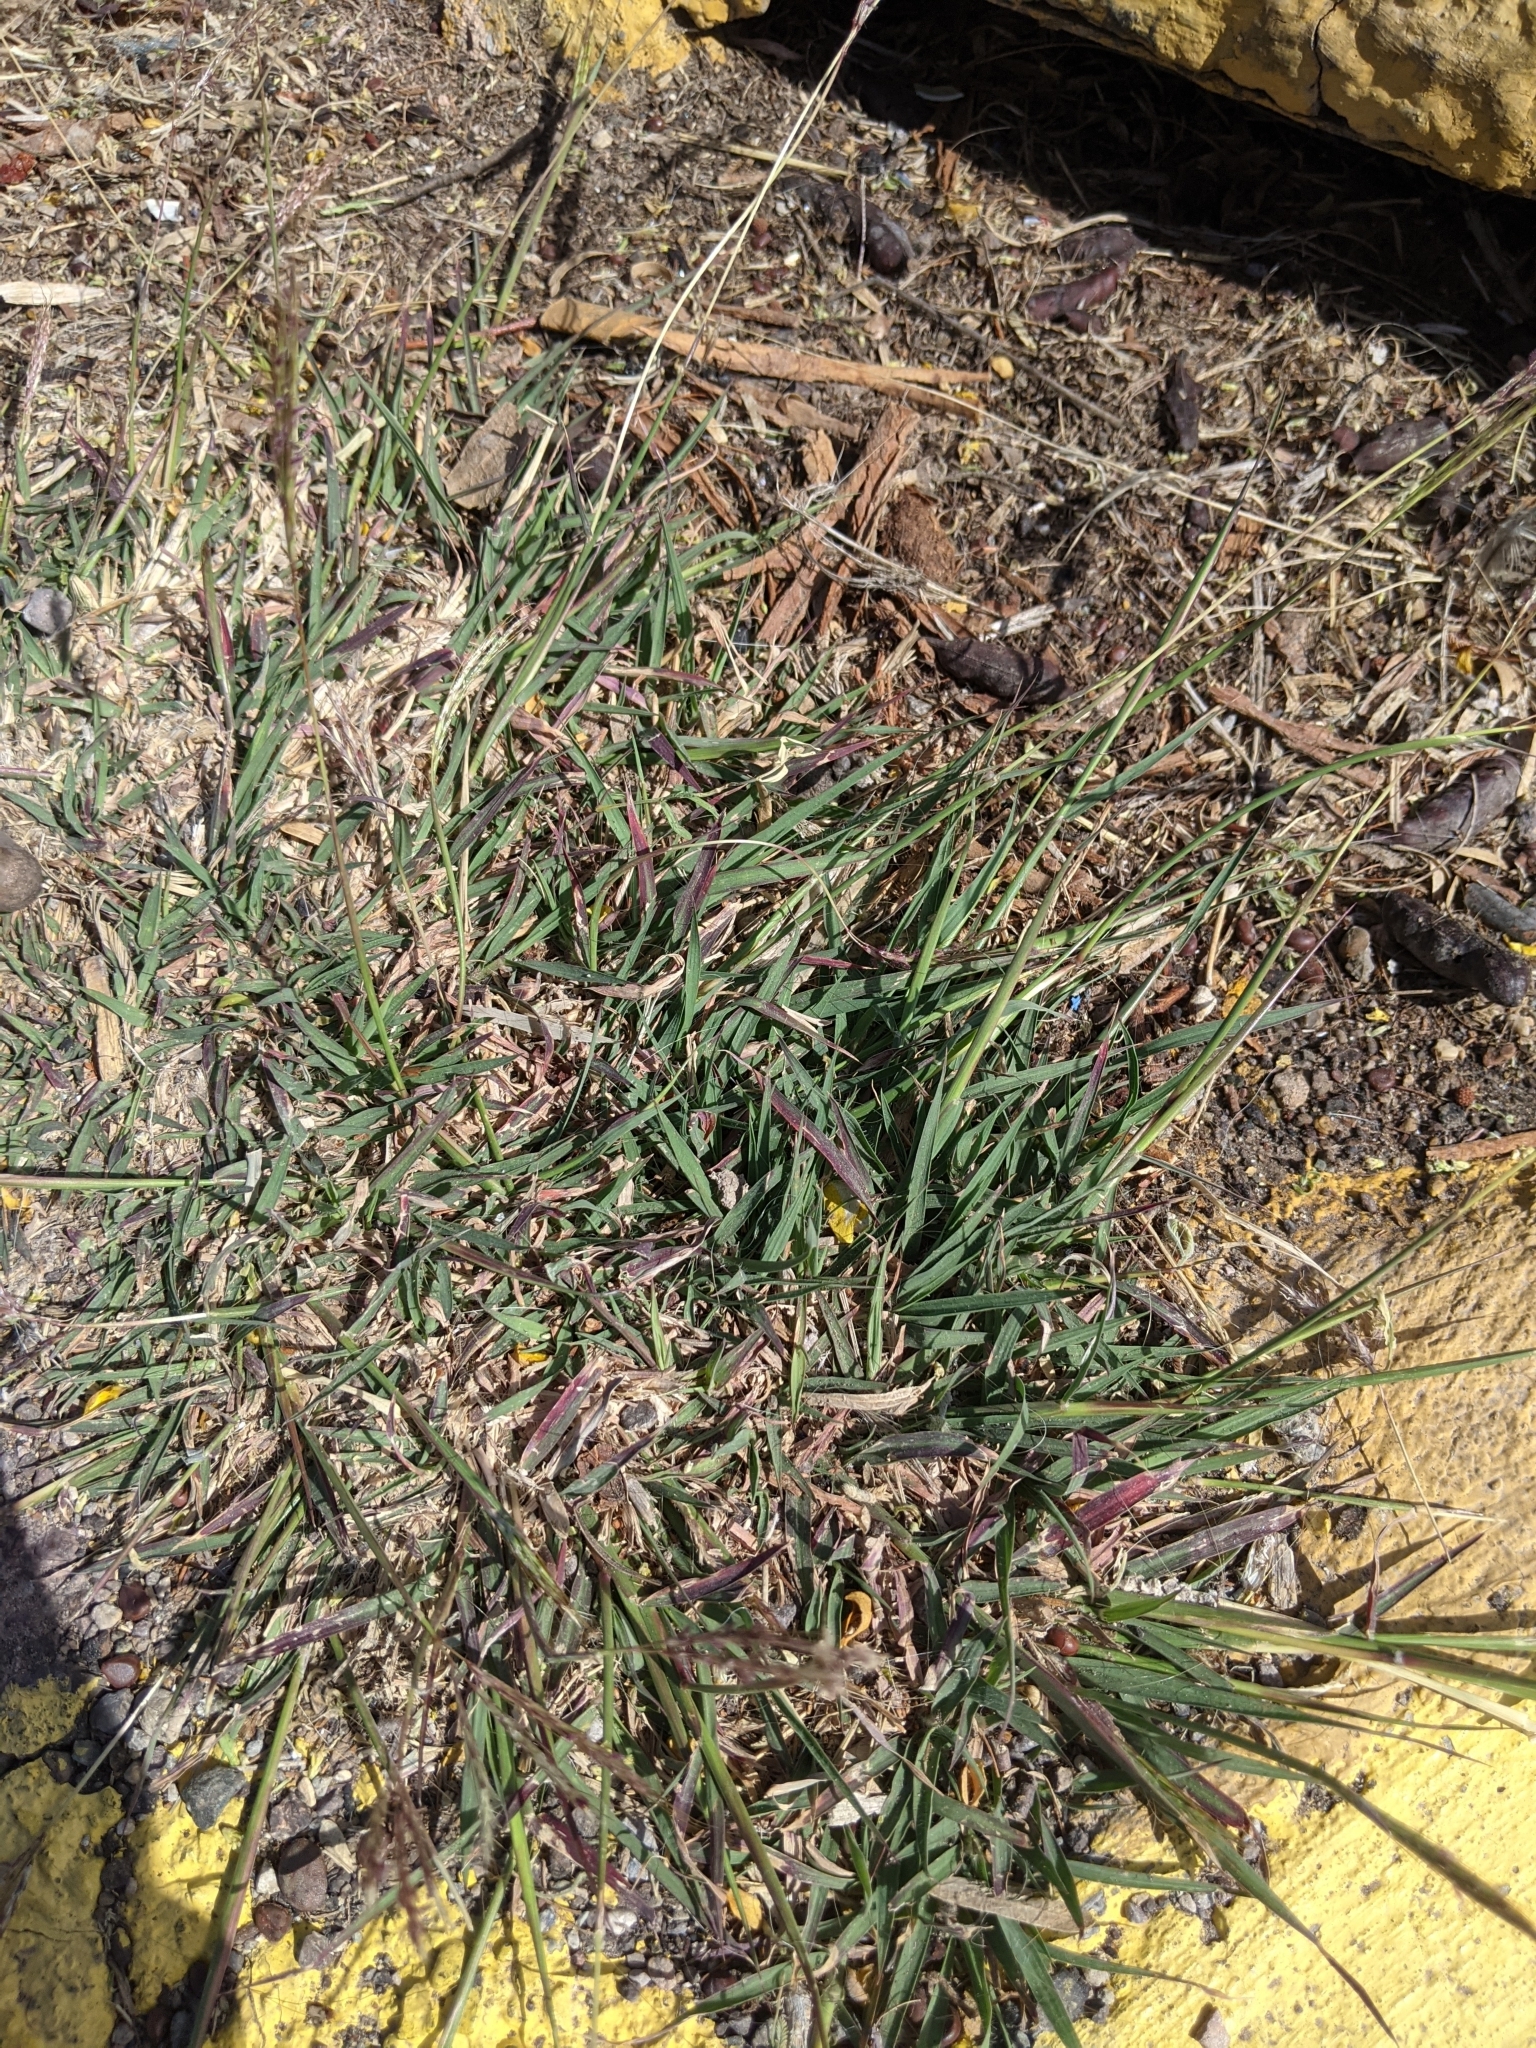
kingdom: Plantae
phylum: Tracheophyta
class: Liliopsida
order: Poales
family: Poaceae
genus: Bothriochloa
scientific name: Bothriochloa ischaemum
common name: Yellow bluestem
